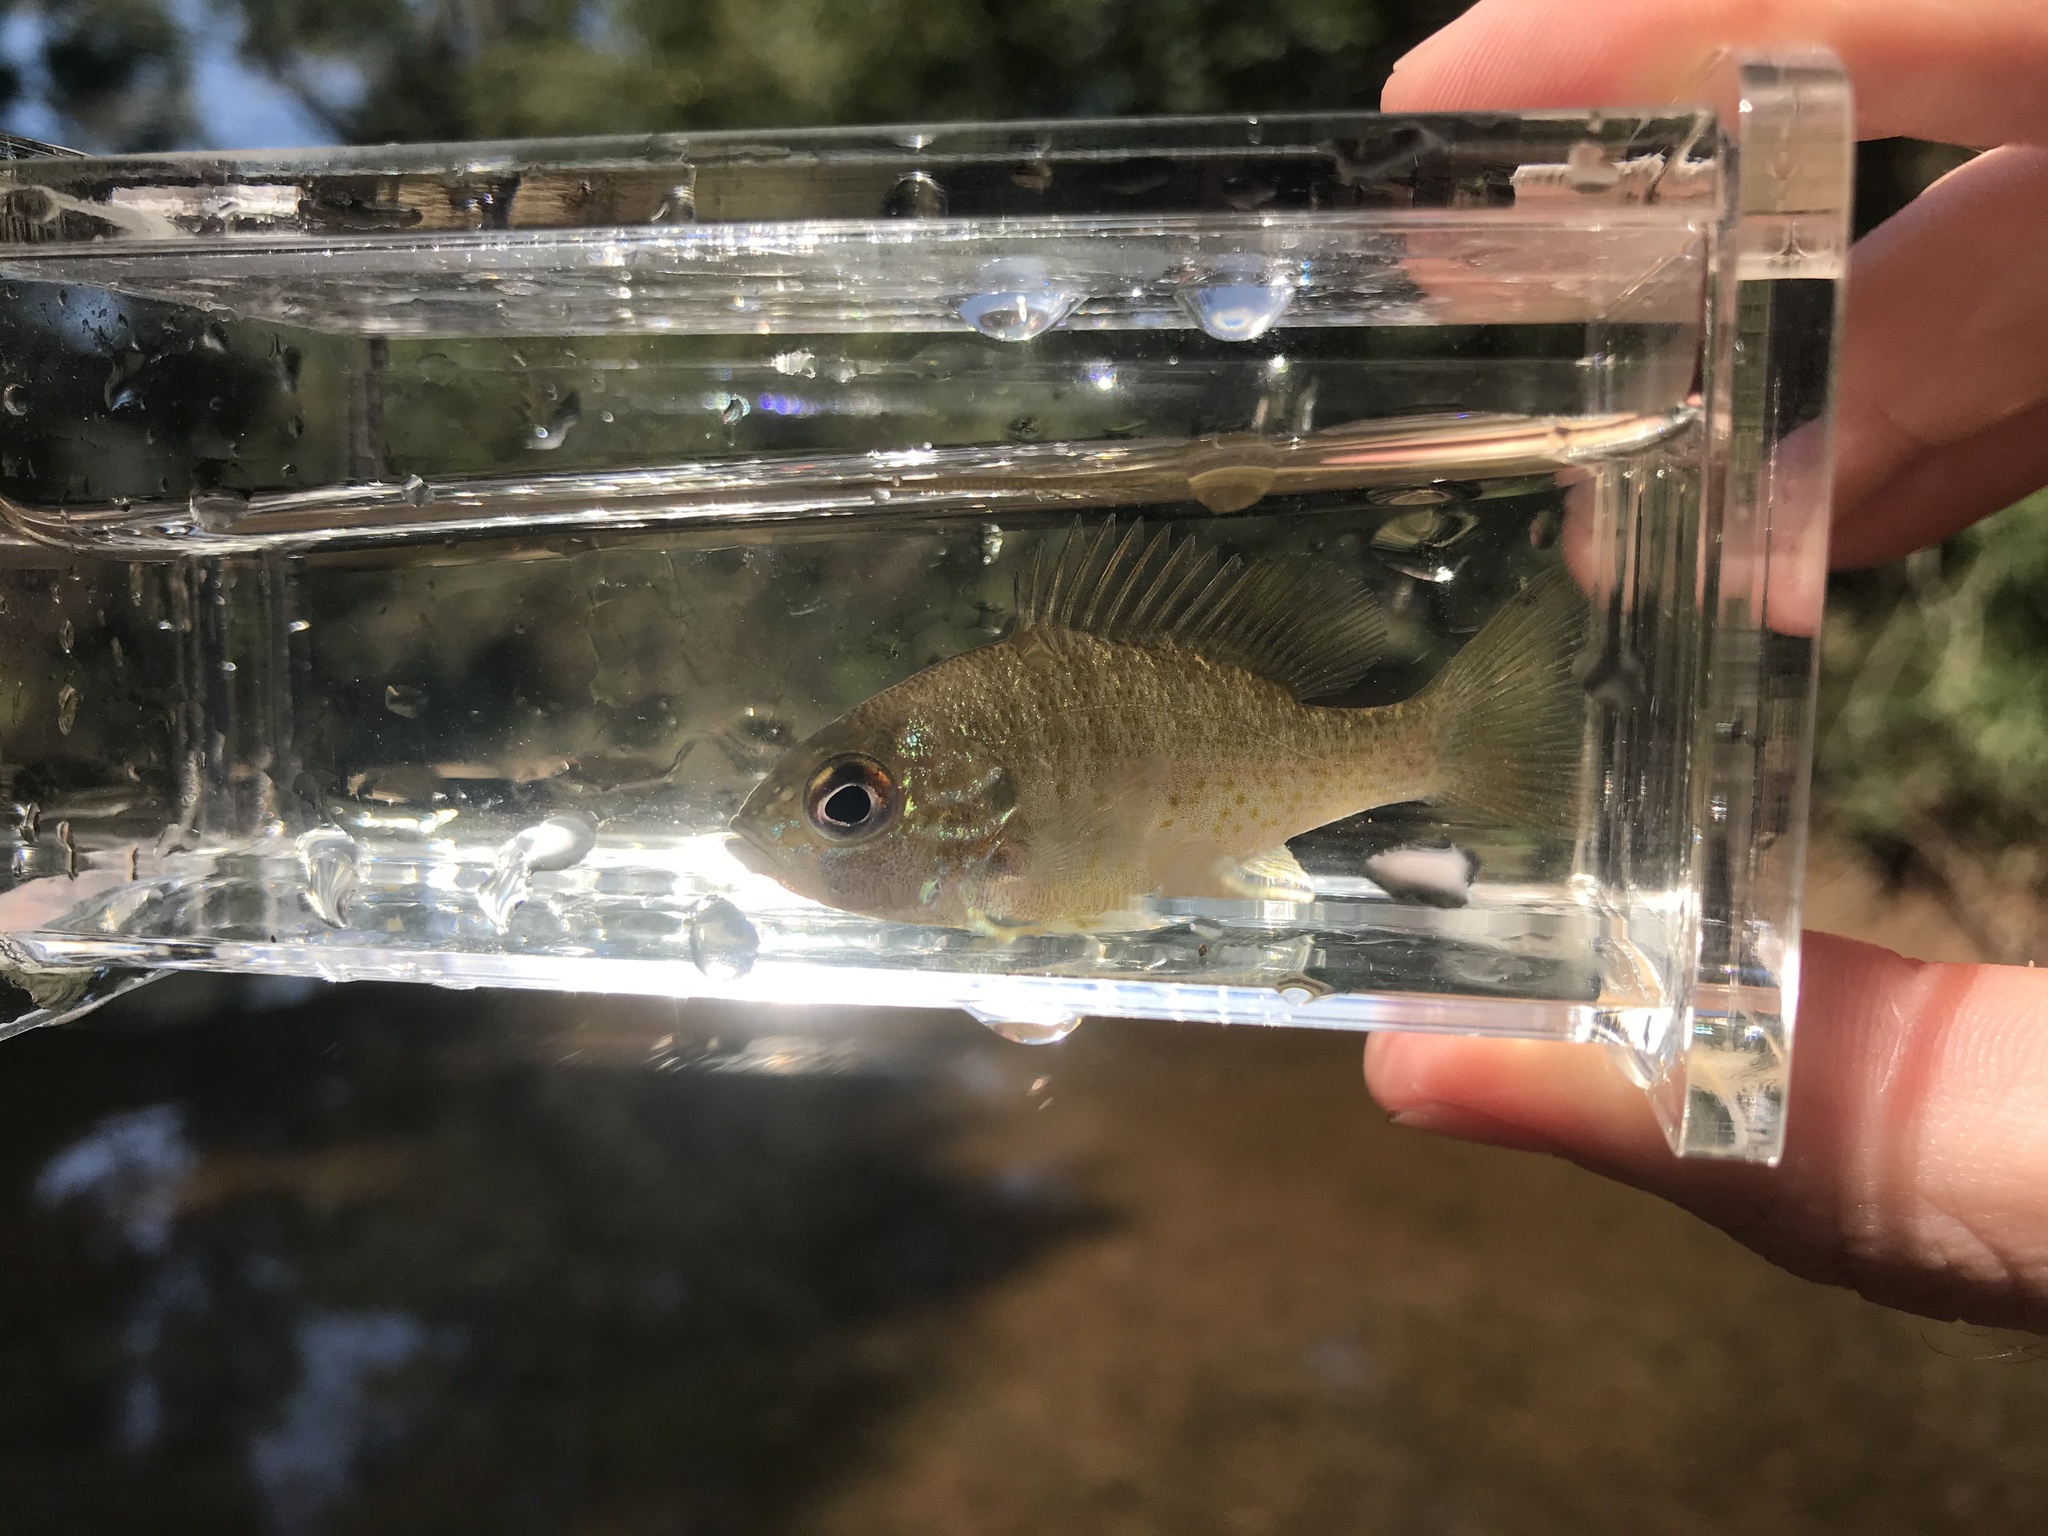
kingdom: Animalia
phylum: Chordata
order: Perciformes
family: Centrarchidae
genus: Lepomis
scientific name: Lepomis auritus
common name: Redbreast sunfish
